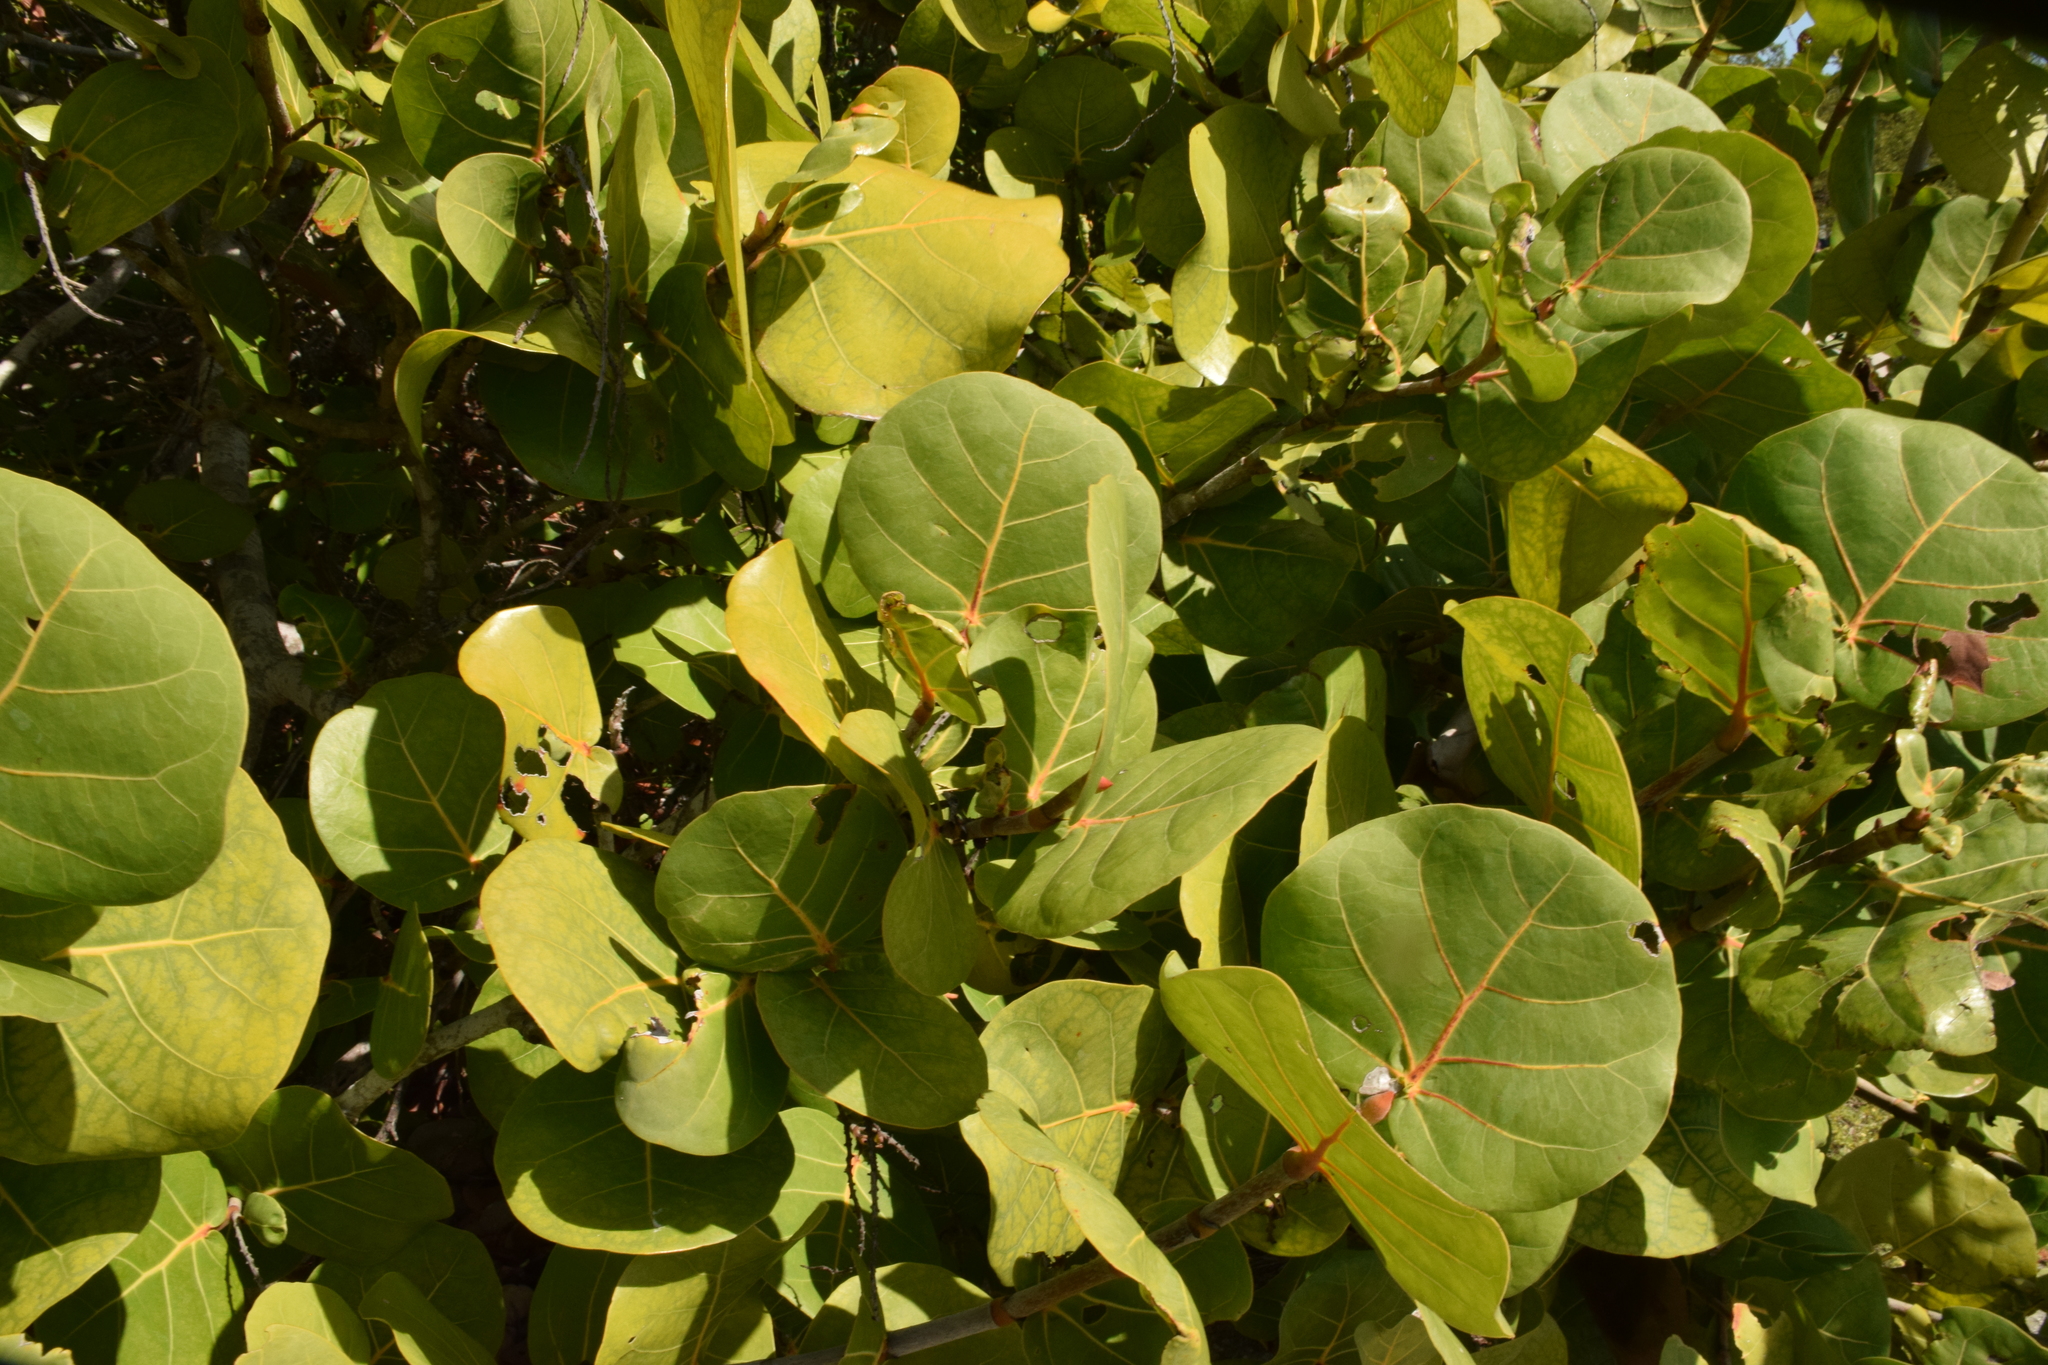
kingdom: Plantae
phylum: Tracheophyta
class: Magnoliopsida
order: Caryophyllales
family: Polygonaceae
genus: Coccoloba
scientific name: Coccoloba uvifera
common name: Seagrape
